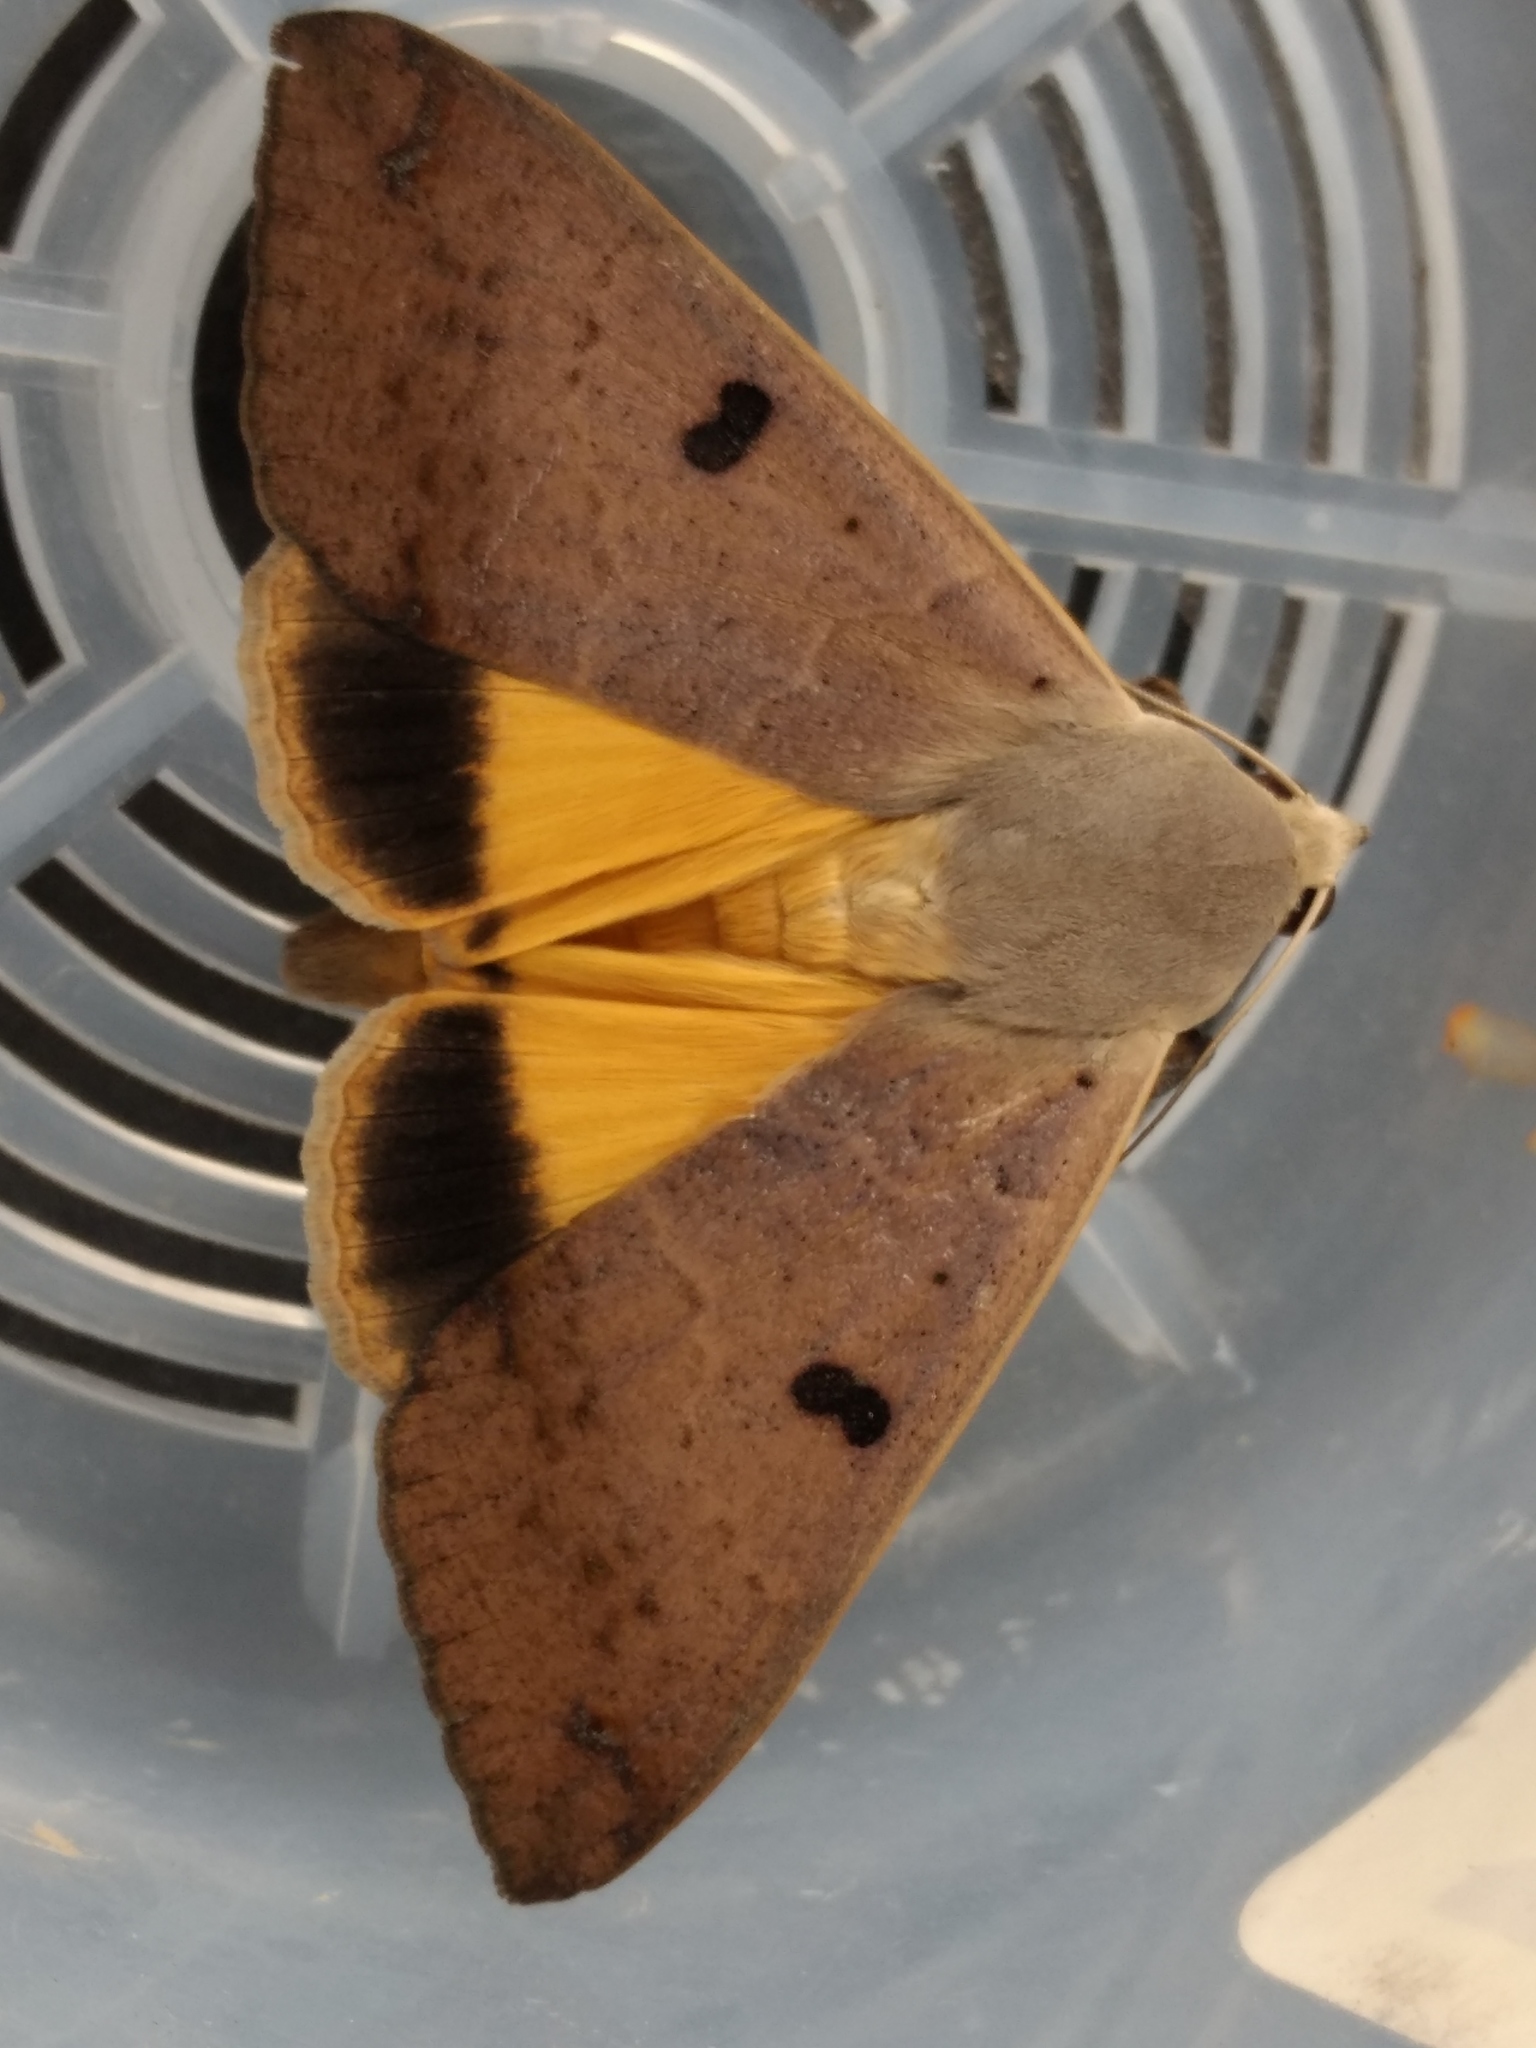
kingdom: Animalia
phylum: Arthropoda
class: Insecta
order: Lepidoptera
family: Erebidae
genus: Ophiusa
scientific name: Ophiusa disjungens
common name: Moth
